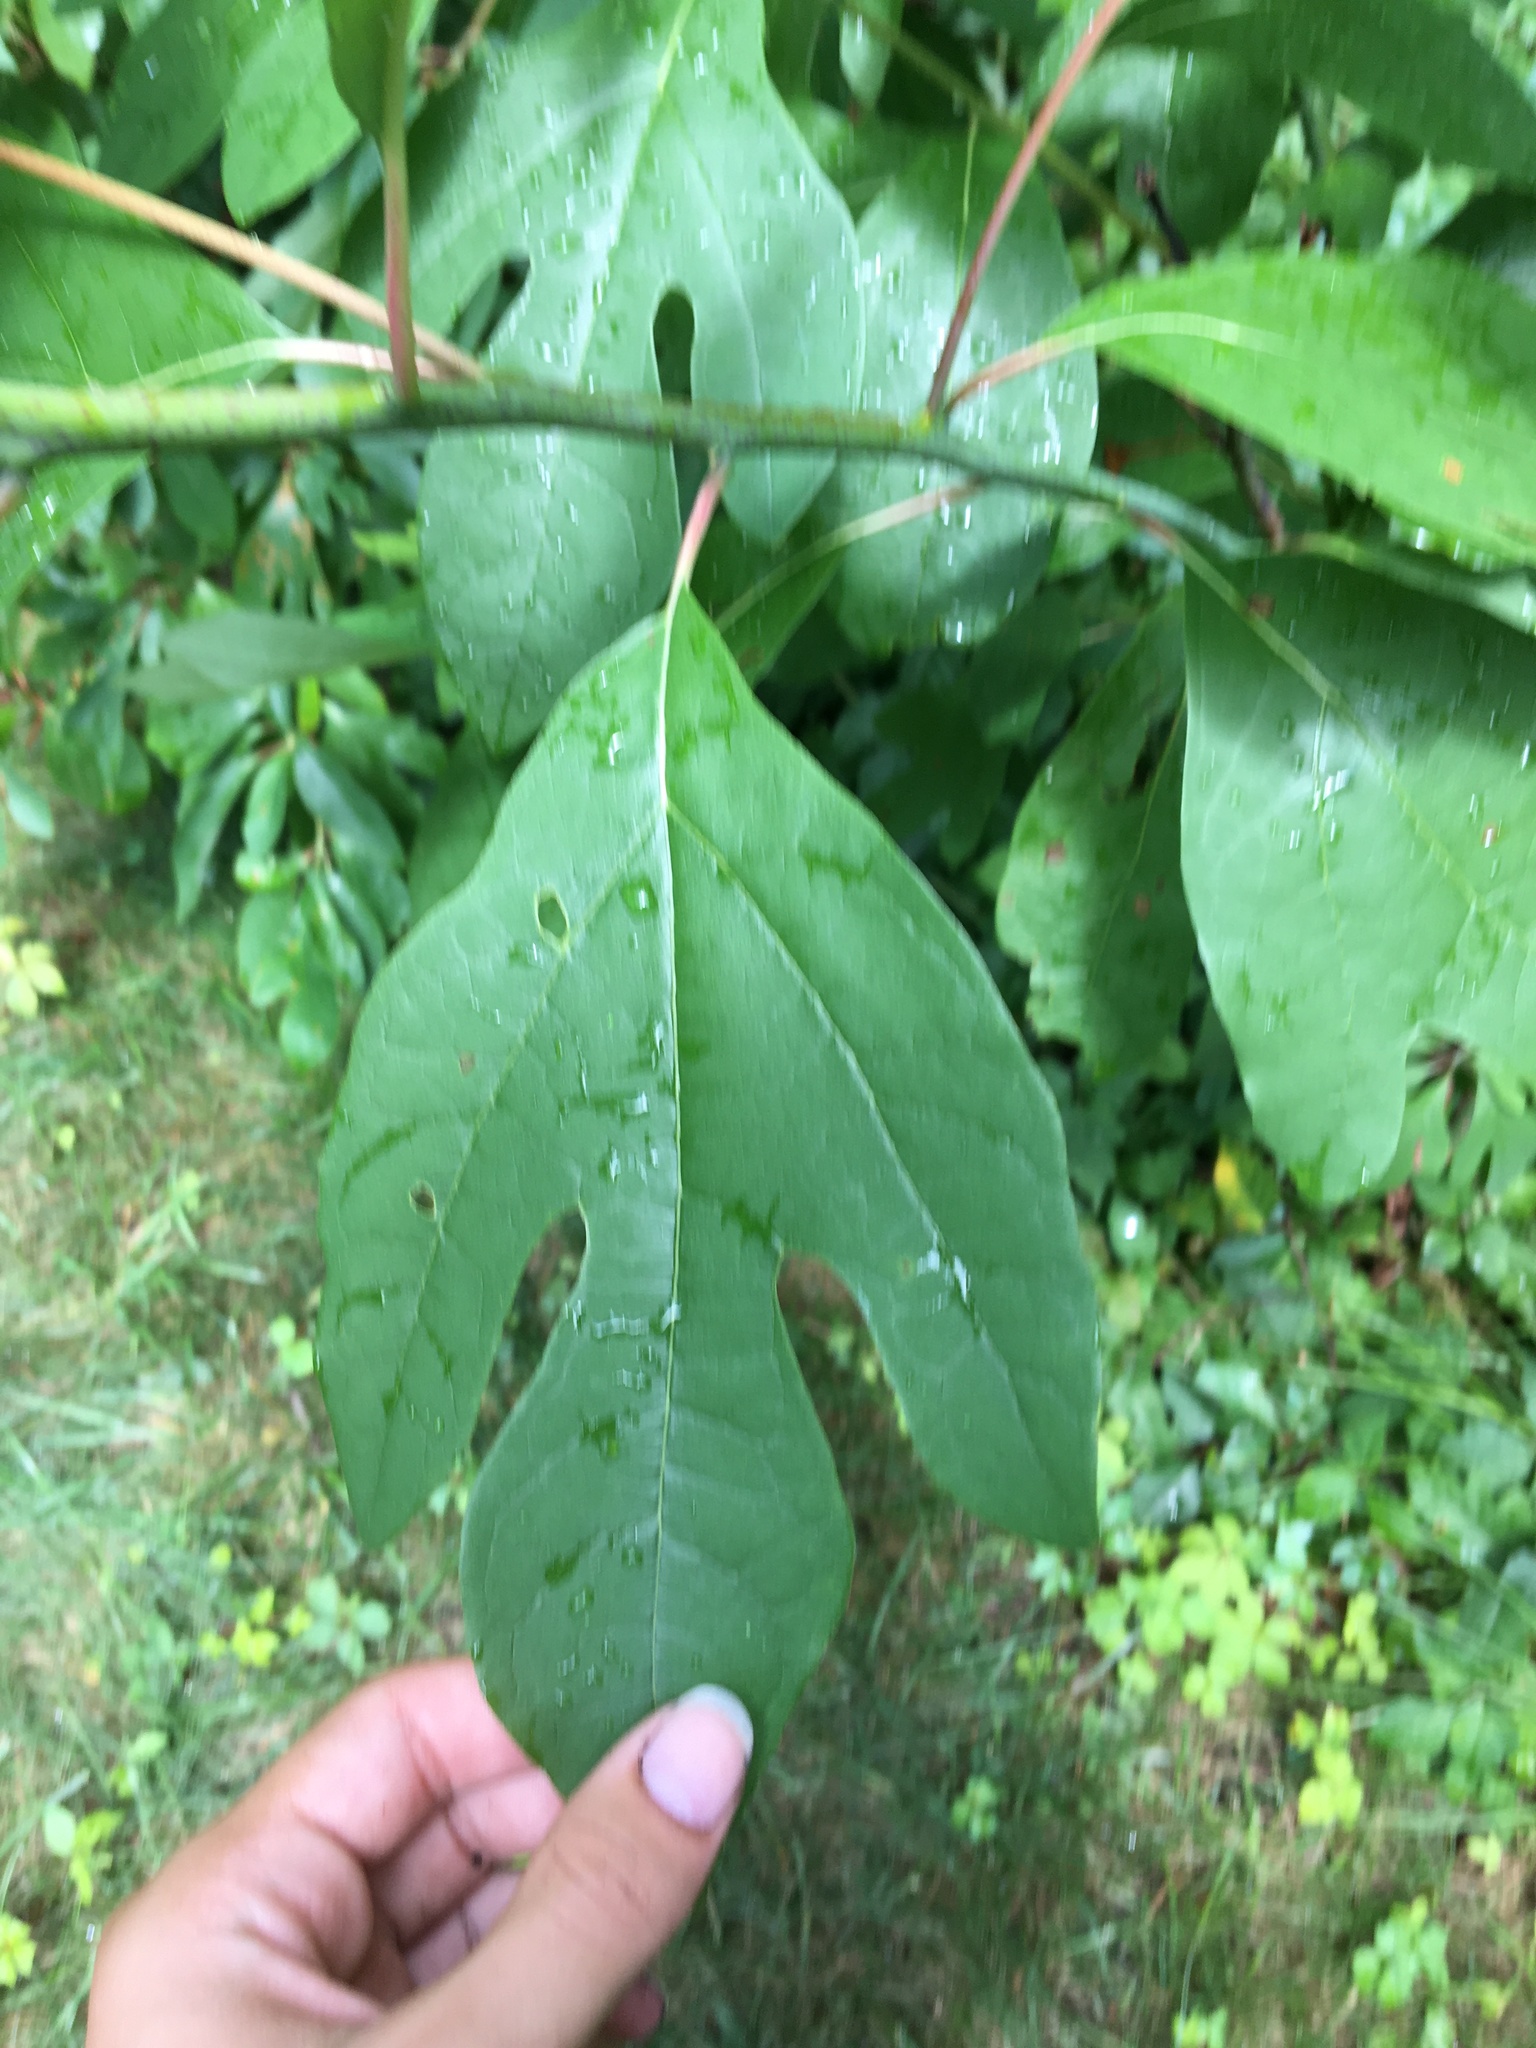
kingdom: Plantae
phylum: Tracheophyta
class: Magnoliopsida
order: Laurales
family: Lauraceae
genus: Sassafras
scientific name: Sassafras albidum
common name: Sassafras
